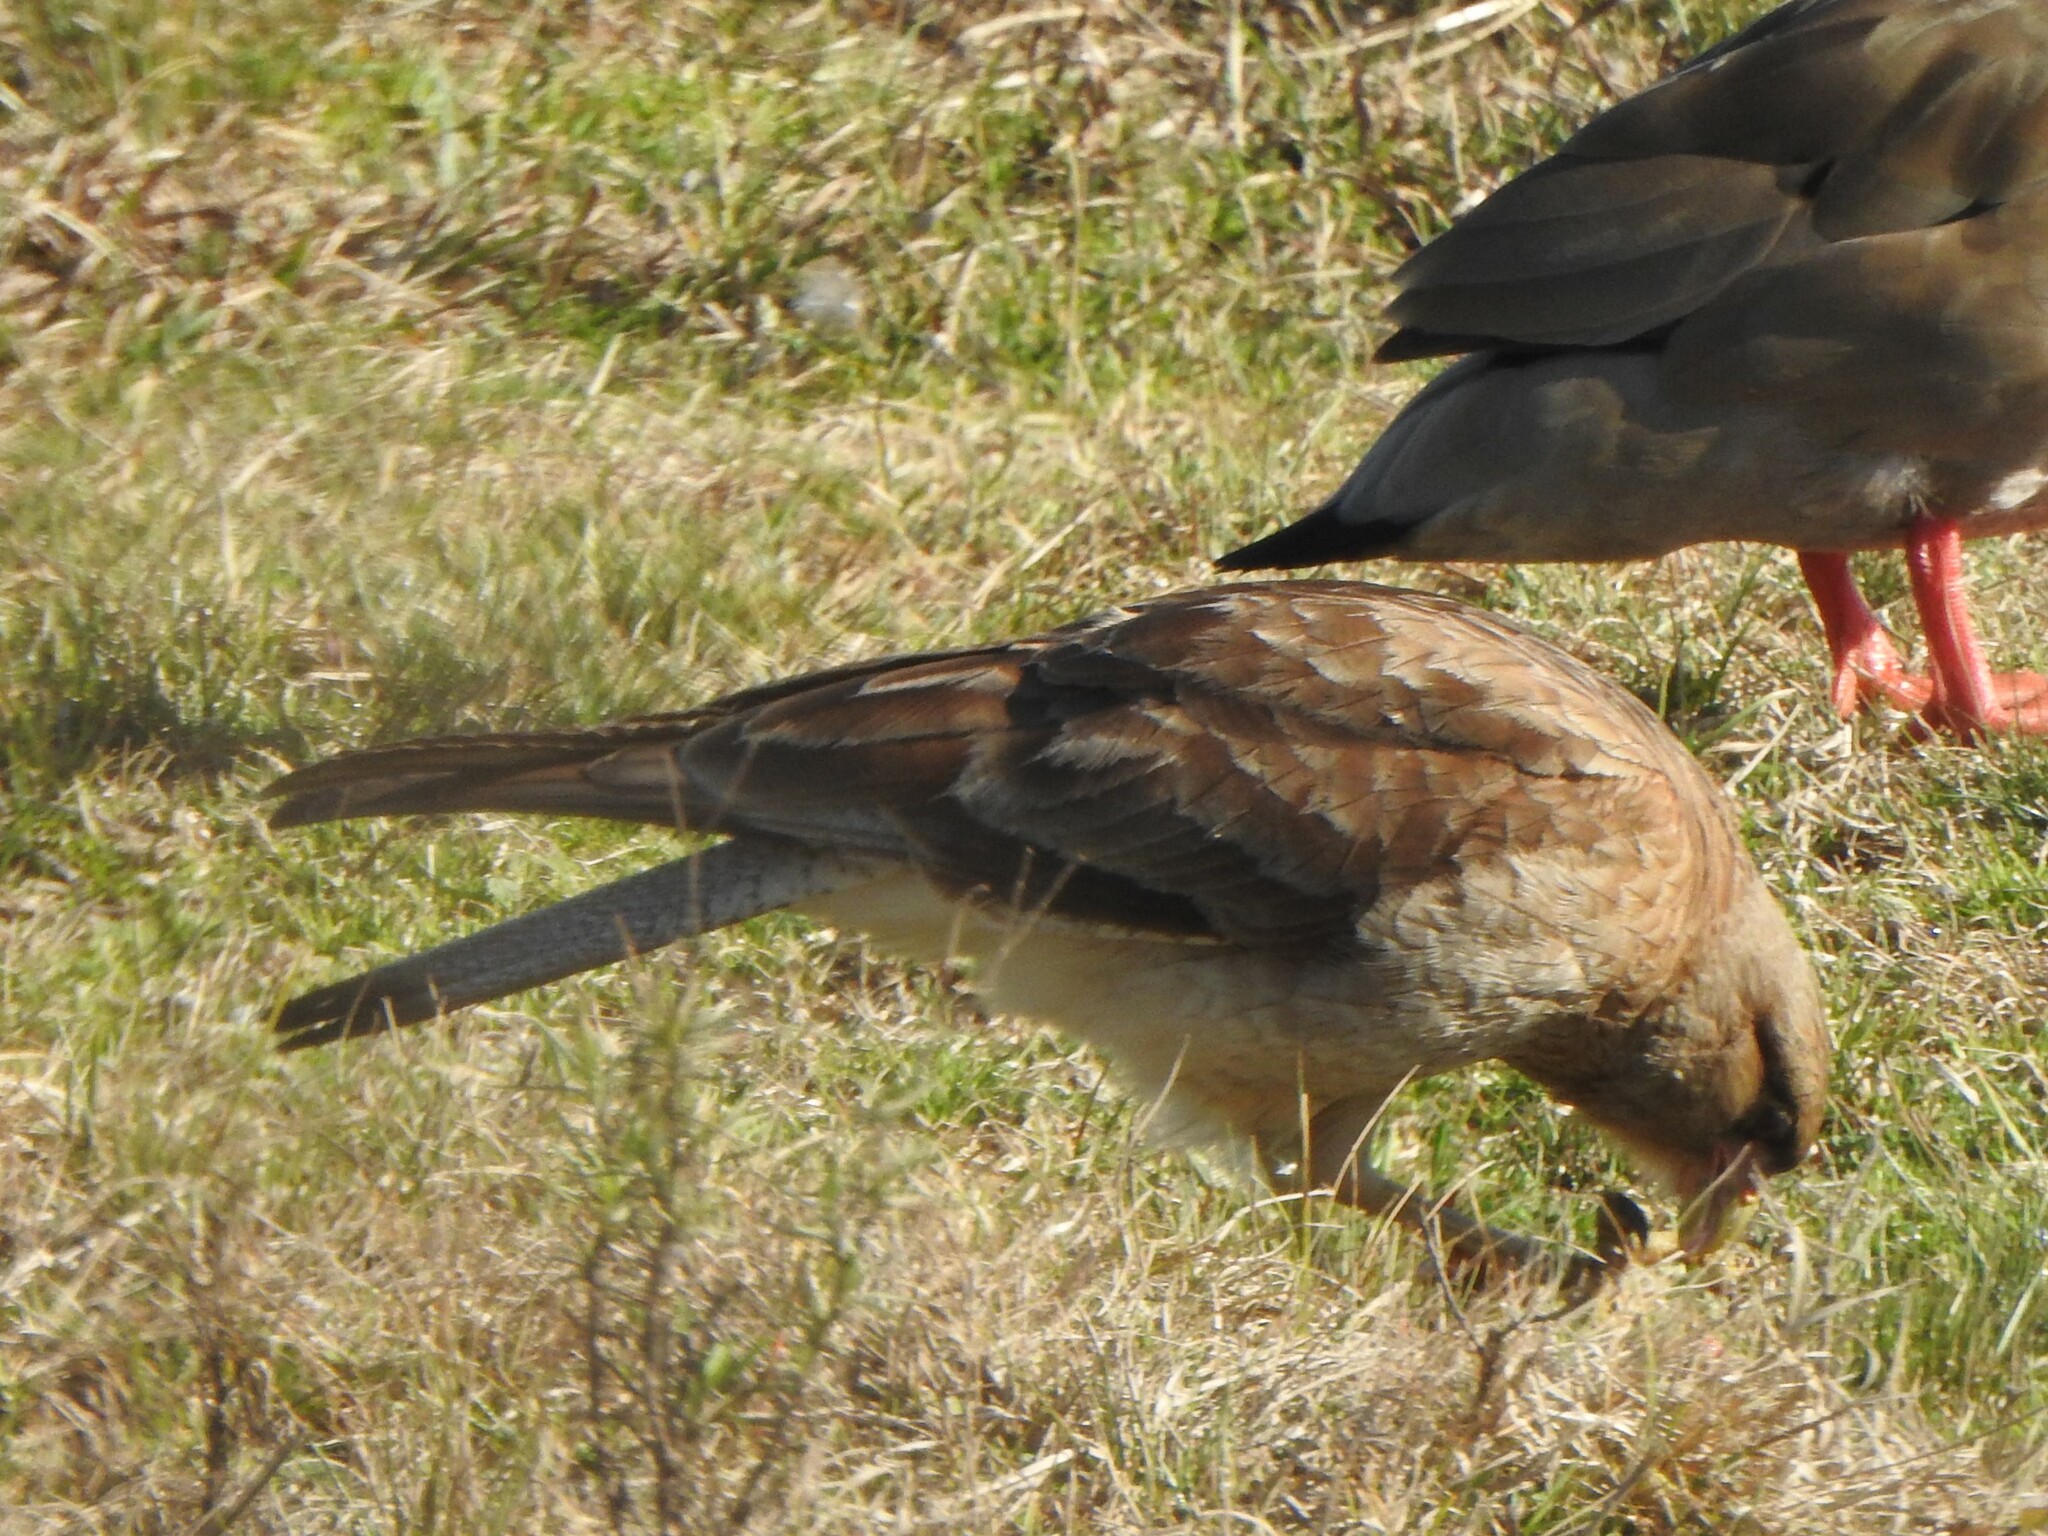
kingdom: Animalia
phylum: Chordata
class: Aves
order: Falconiformes
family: Falconidae
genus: Daptrius
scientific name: Daptrius
